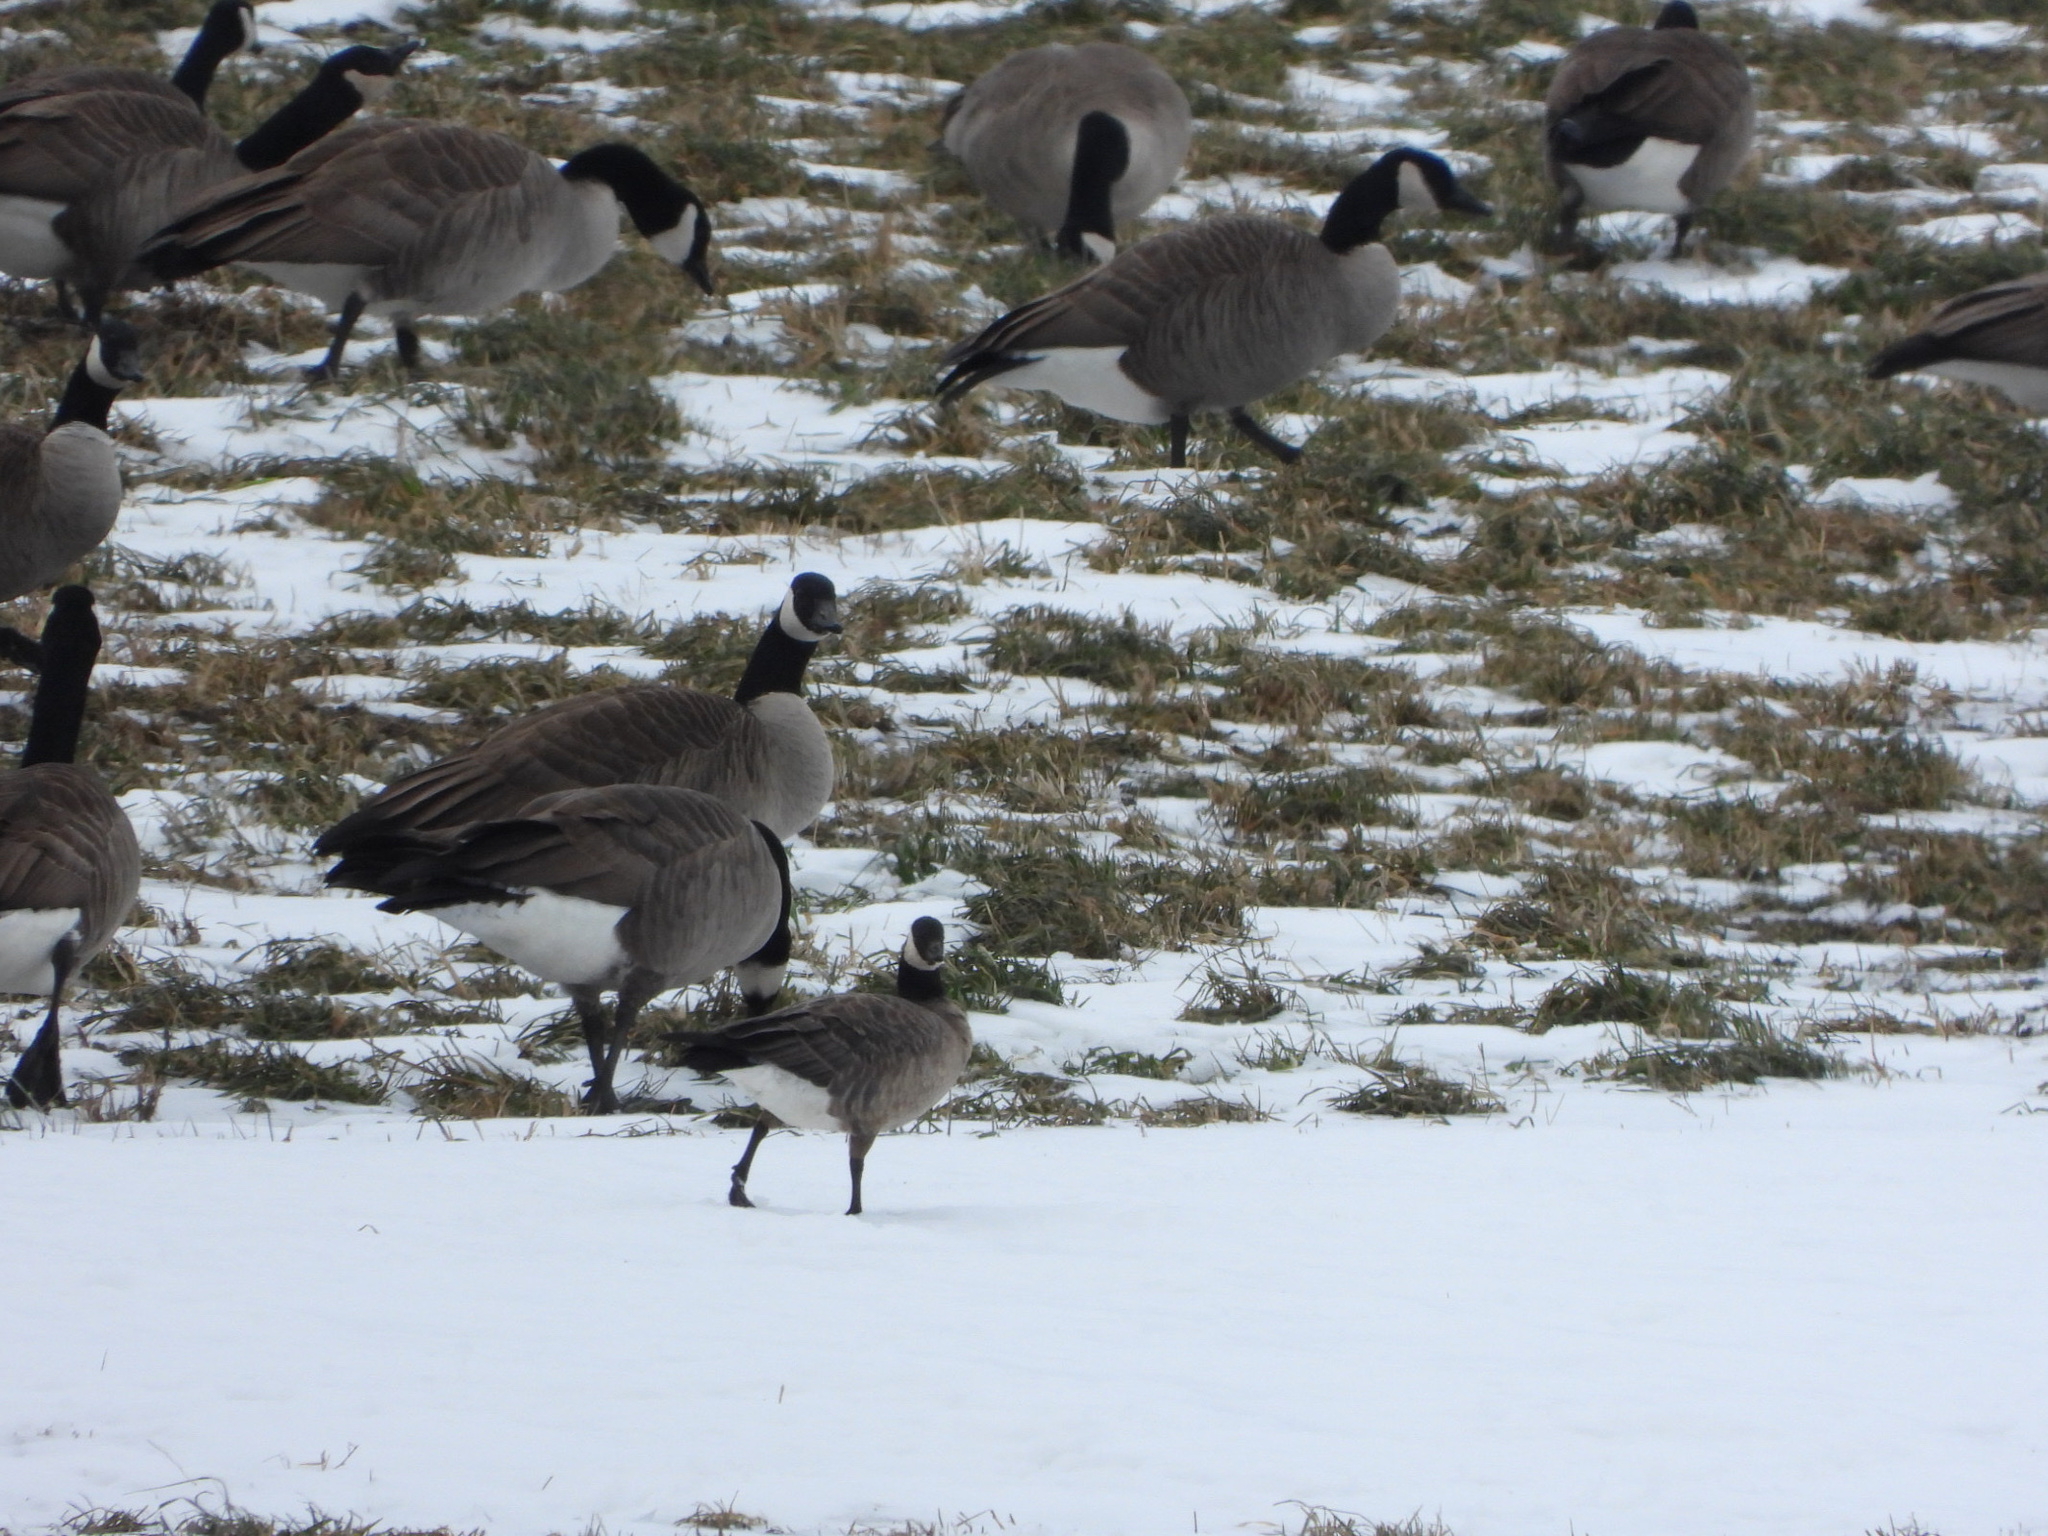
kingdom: Animalia
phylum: Chordata
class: Aves
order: Anseriformes
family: Anatidae
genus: Branta
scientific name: Branta hutchinsii
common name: Cackling goose
